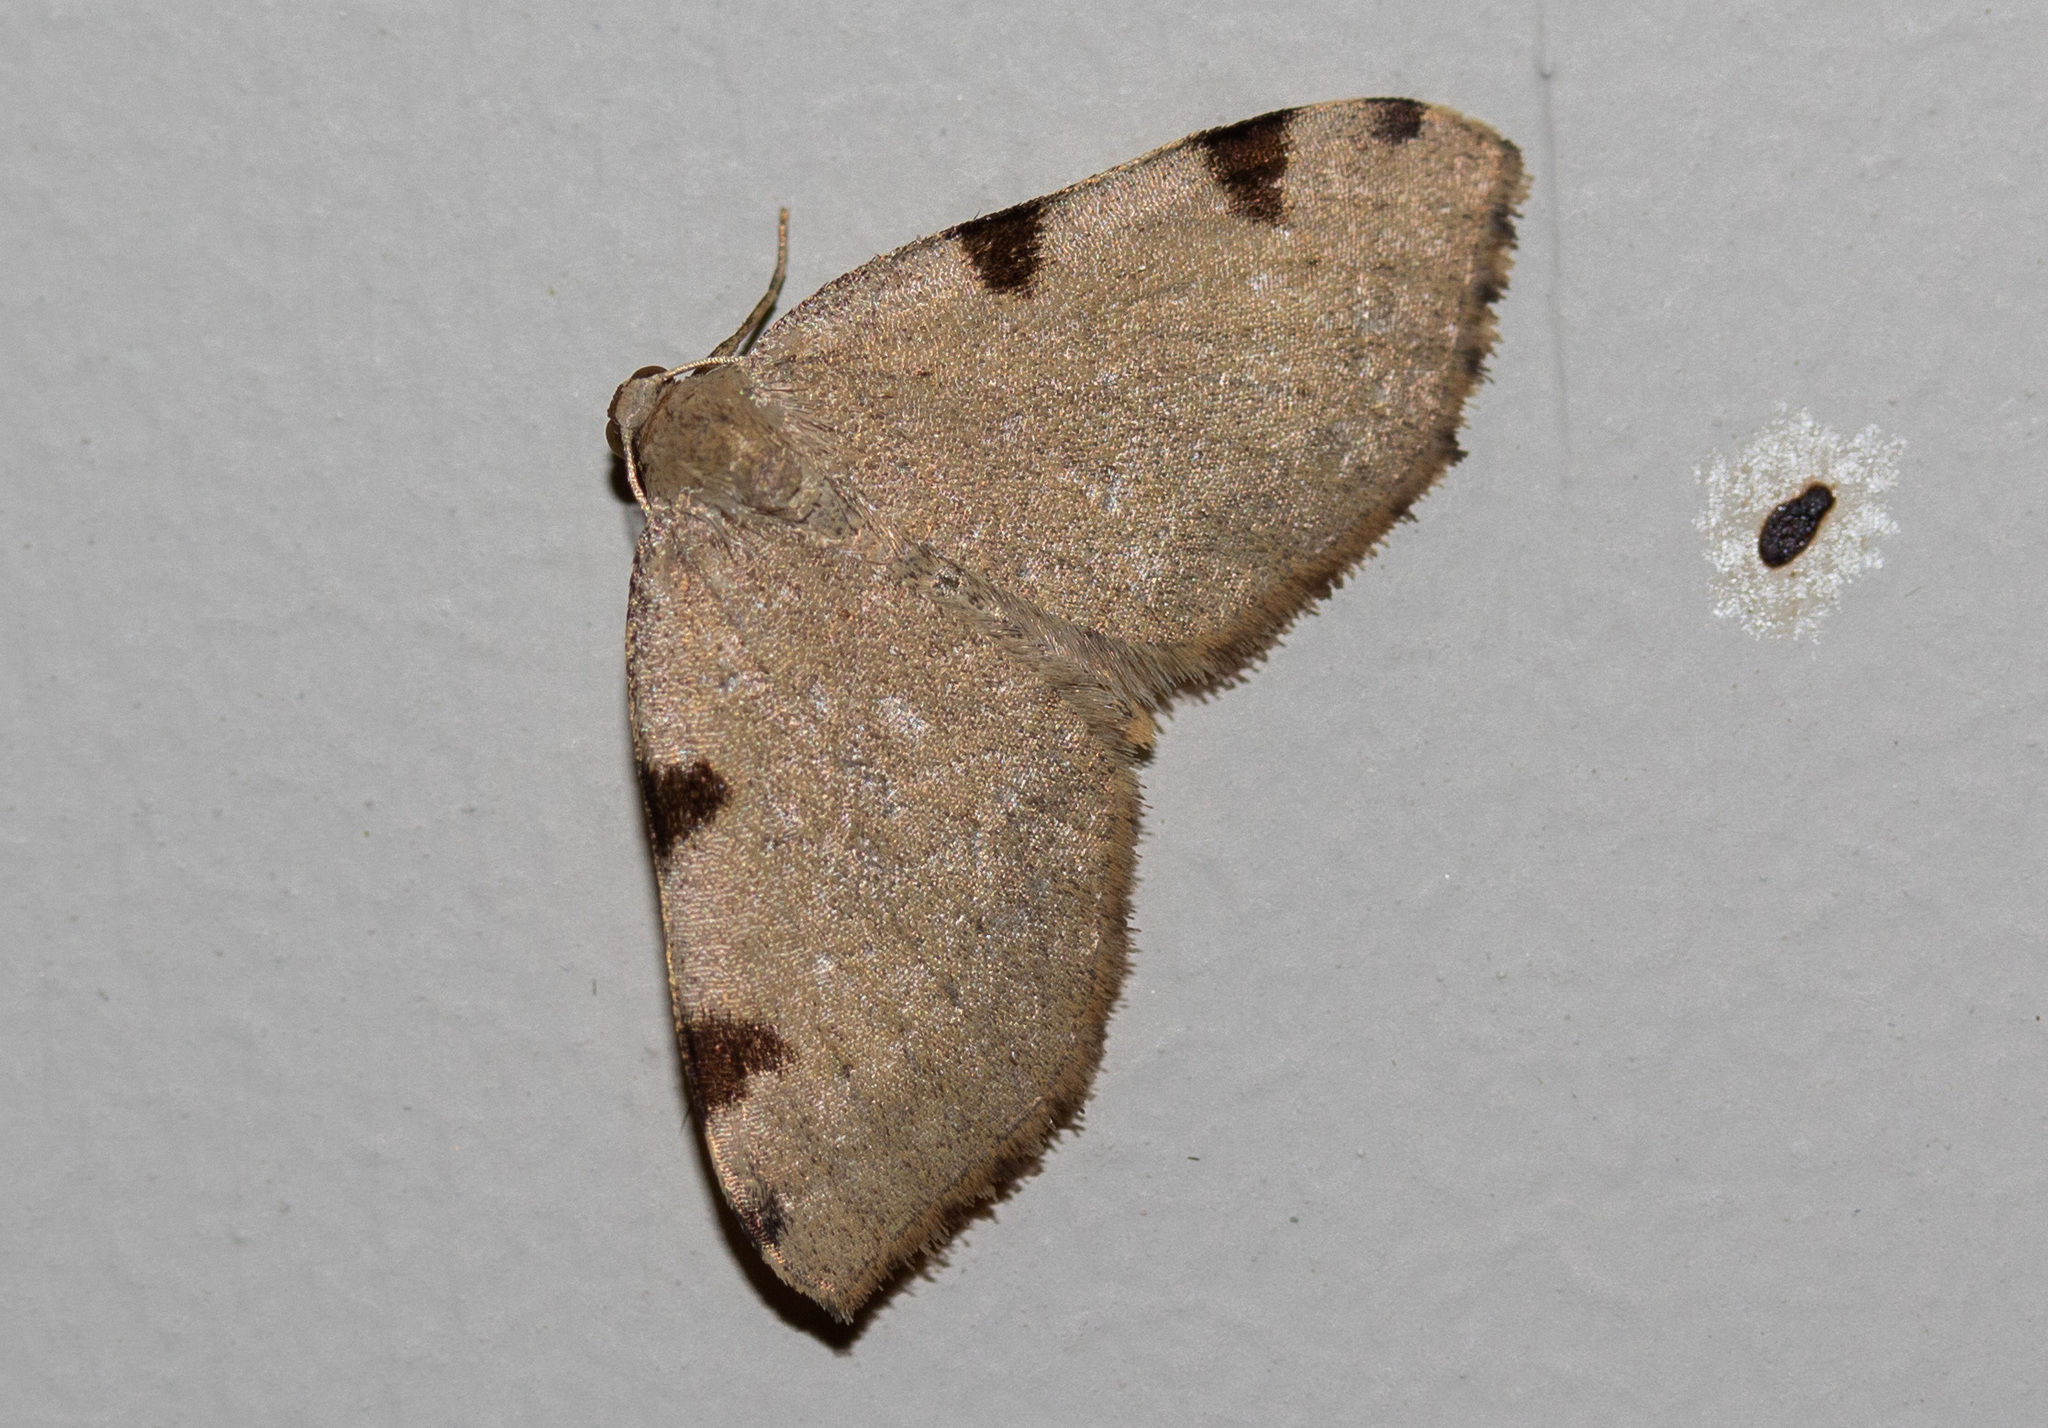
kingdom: Animalia
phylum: Arthropoda
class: Insecta
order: Lepidoptera
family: Geometridae
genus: Heterophleps
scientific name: Heterophleps triguttaria
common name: Three-spotted fillip
